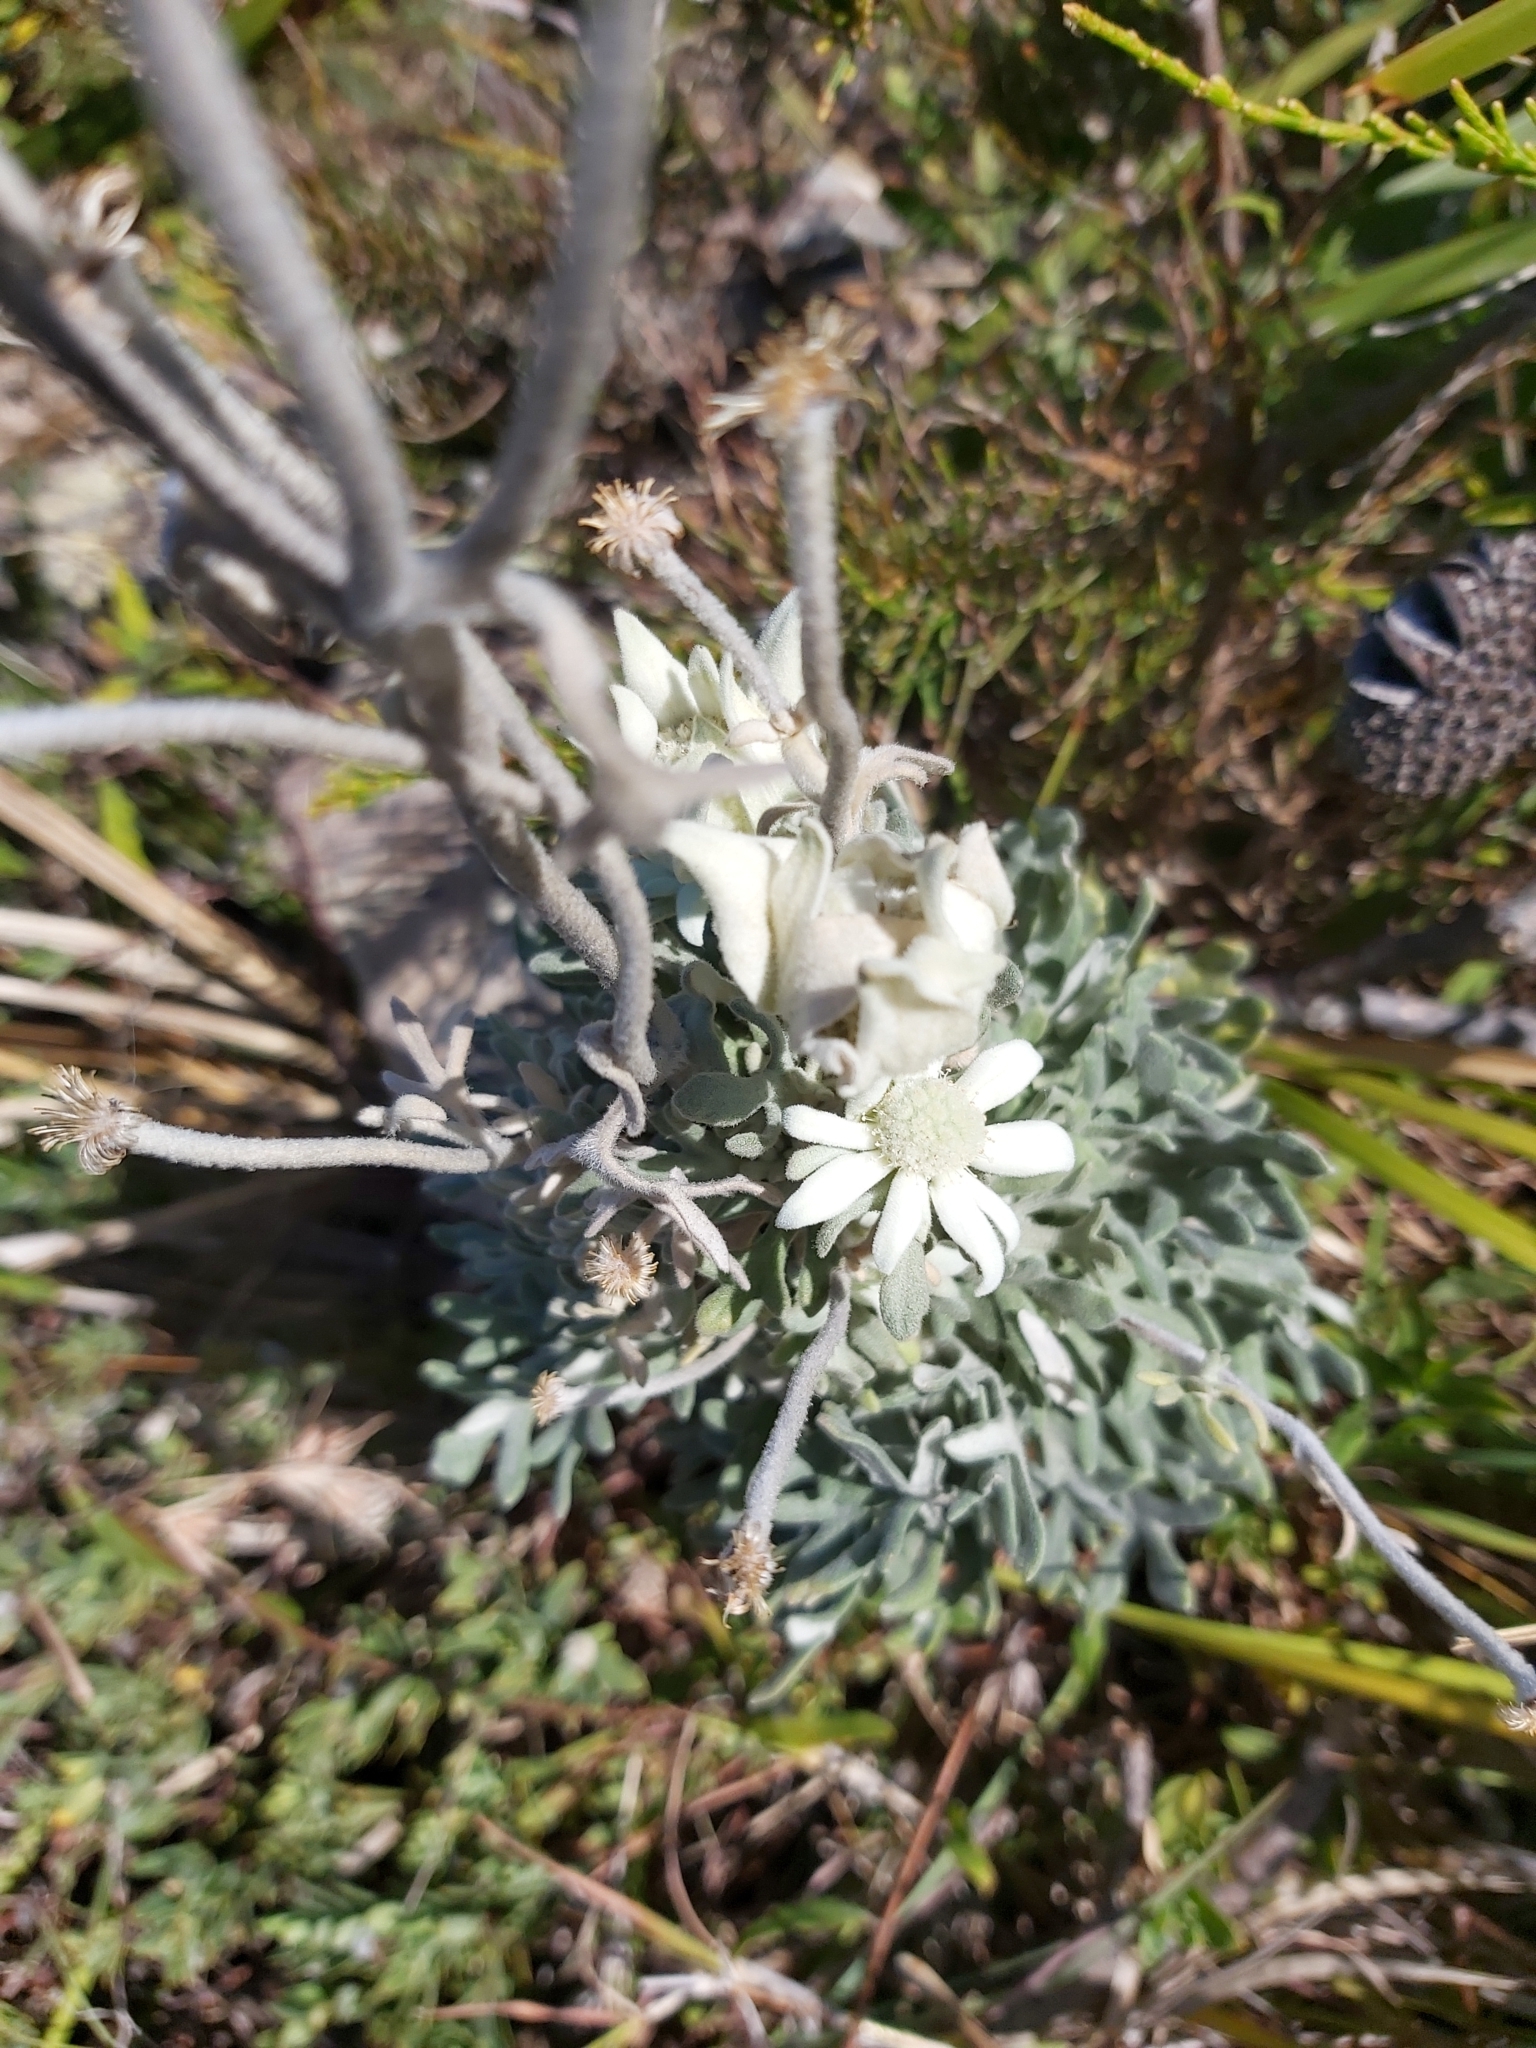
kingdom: Plantae
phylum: Tracheophyta
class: Magnoliopsida
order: Apiales
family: Apiaceae
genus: Actinotus
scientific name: Actinotus helianthi
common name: Flannel-flower
